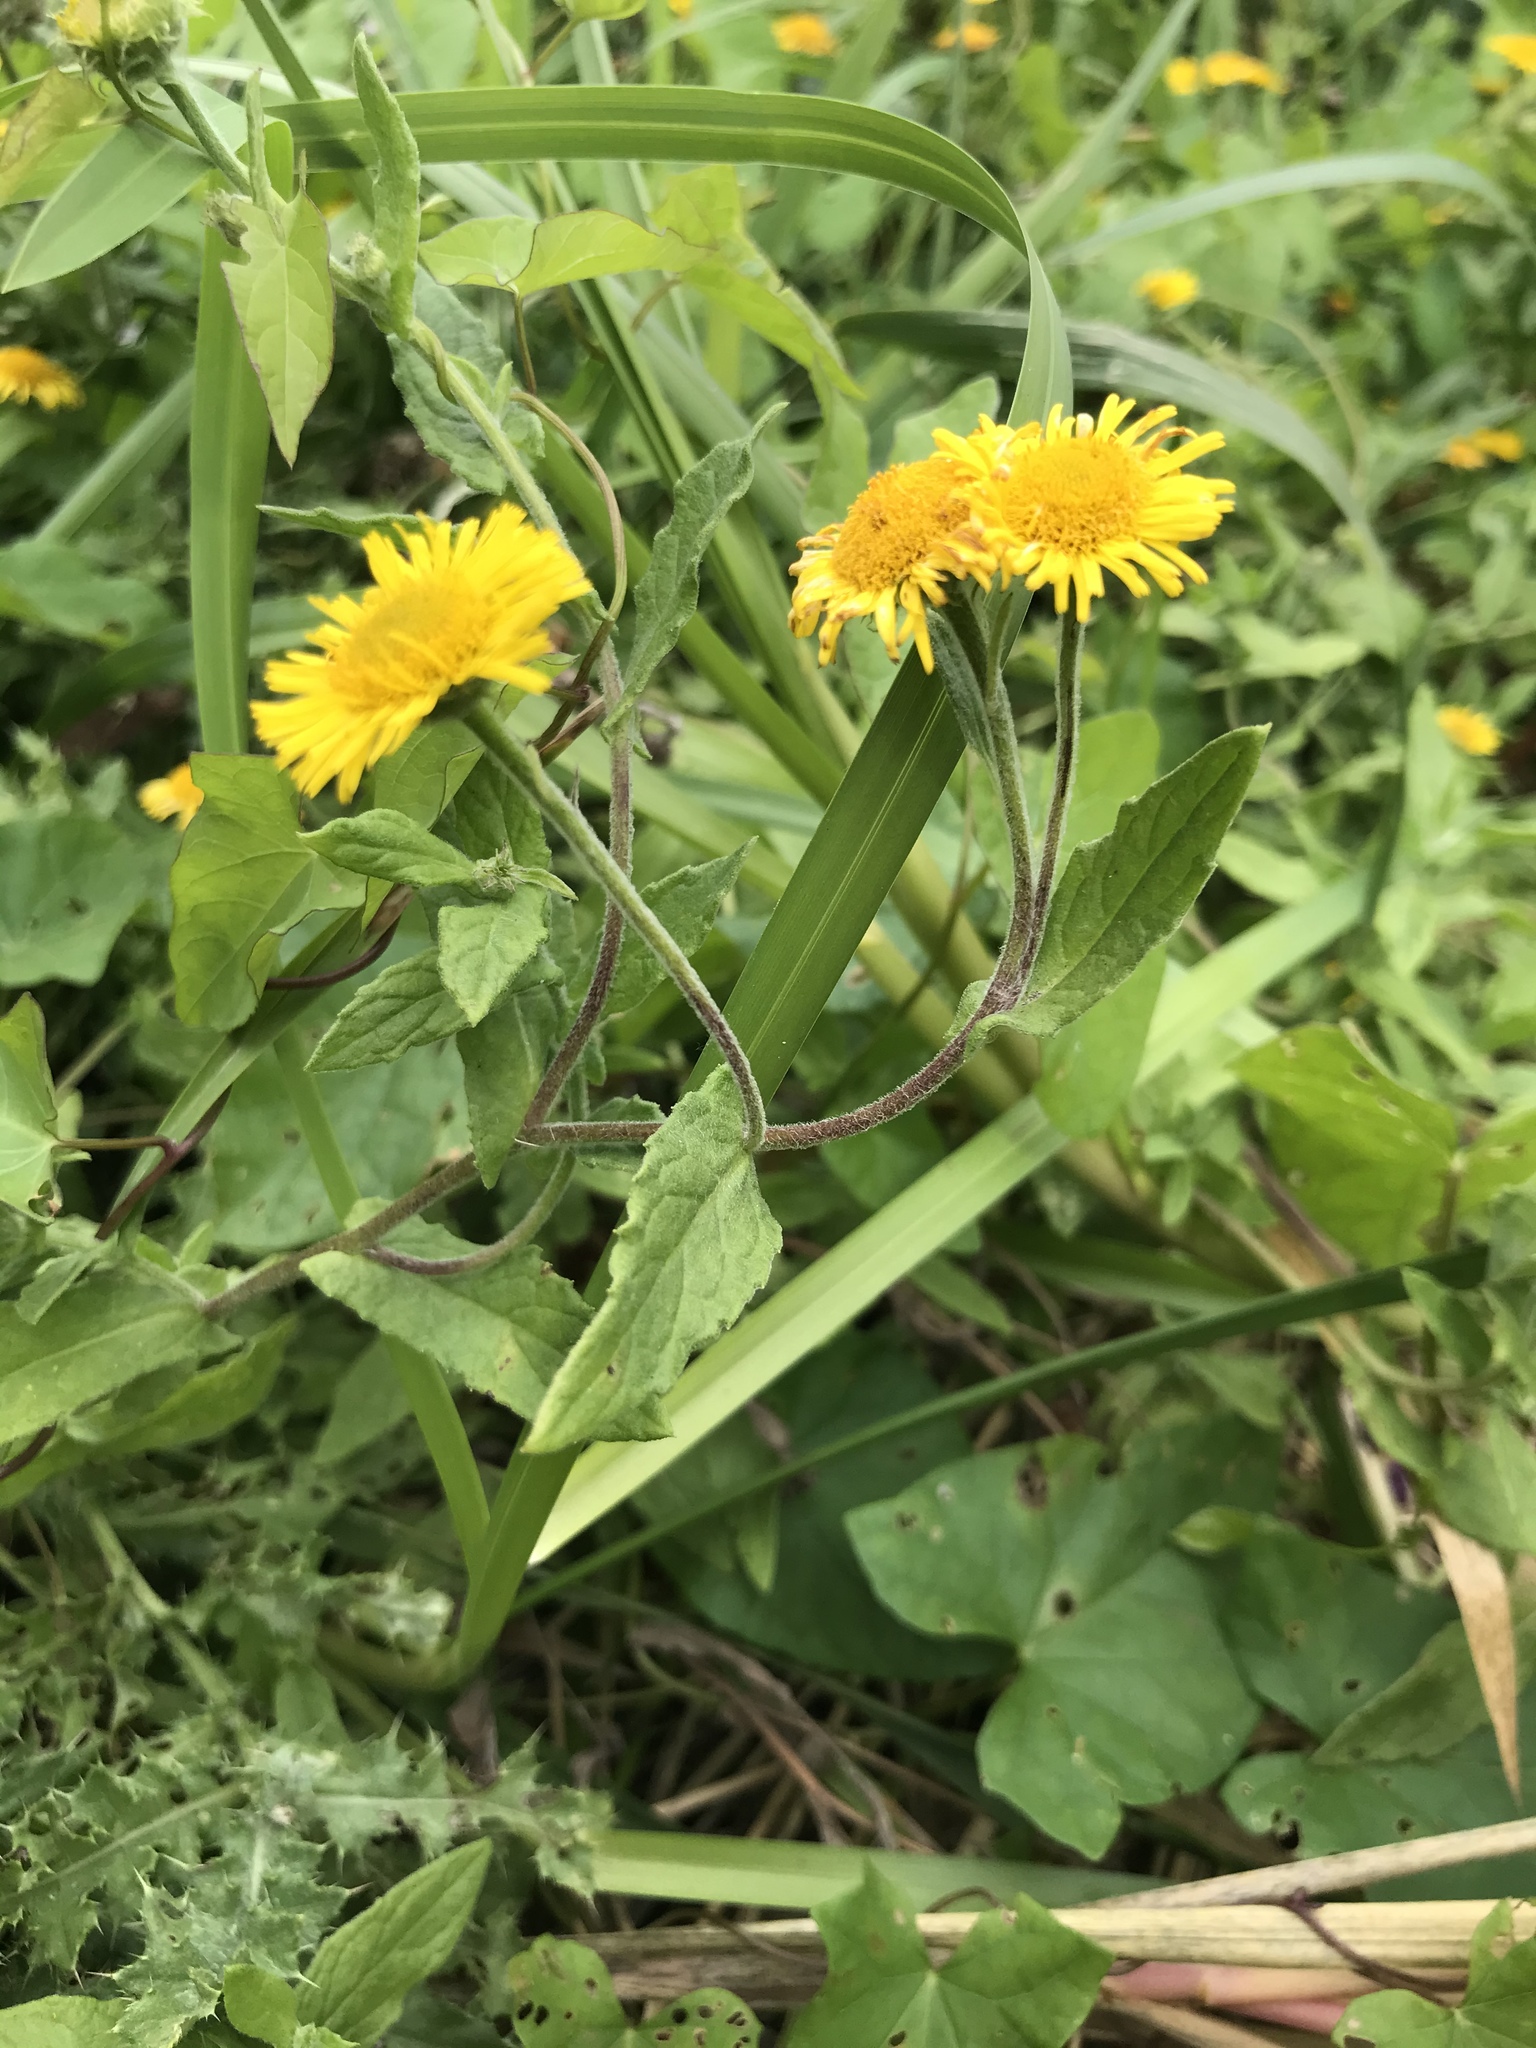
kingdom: Plantae
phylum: Tracheophyta
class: Magnoliopsida
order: Asterales
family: Asteraceae
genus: Pulicaria
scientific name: Pulicaria dysenterica
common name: Common fleabane
